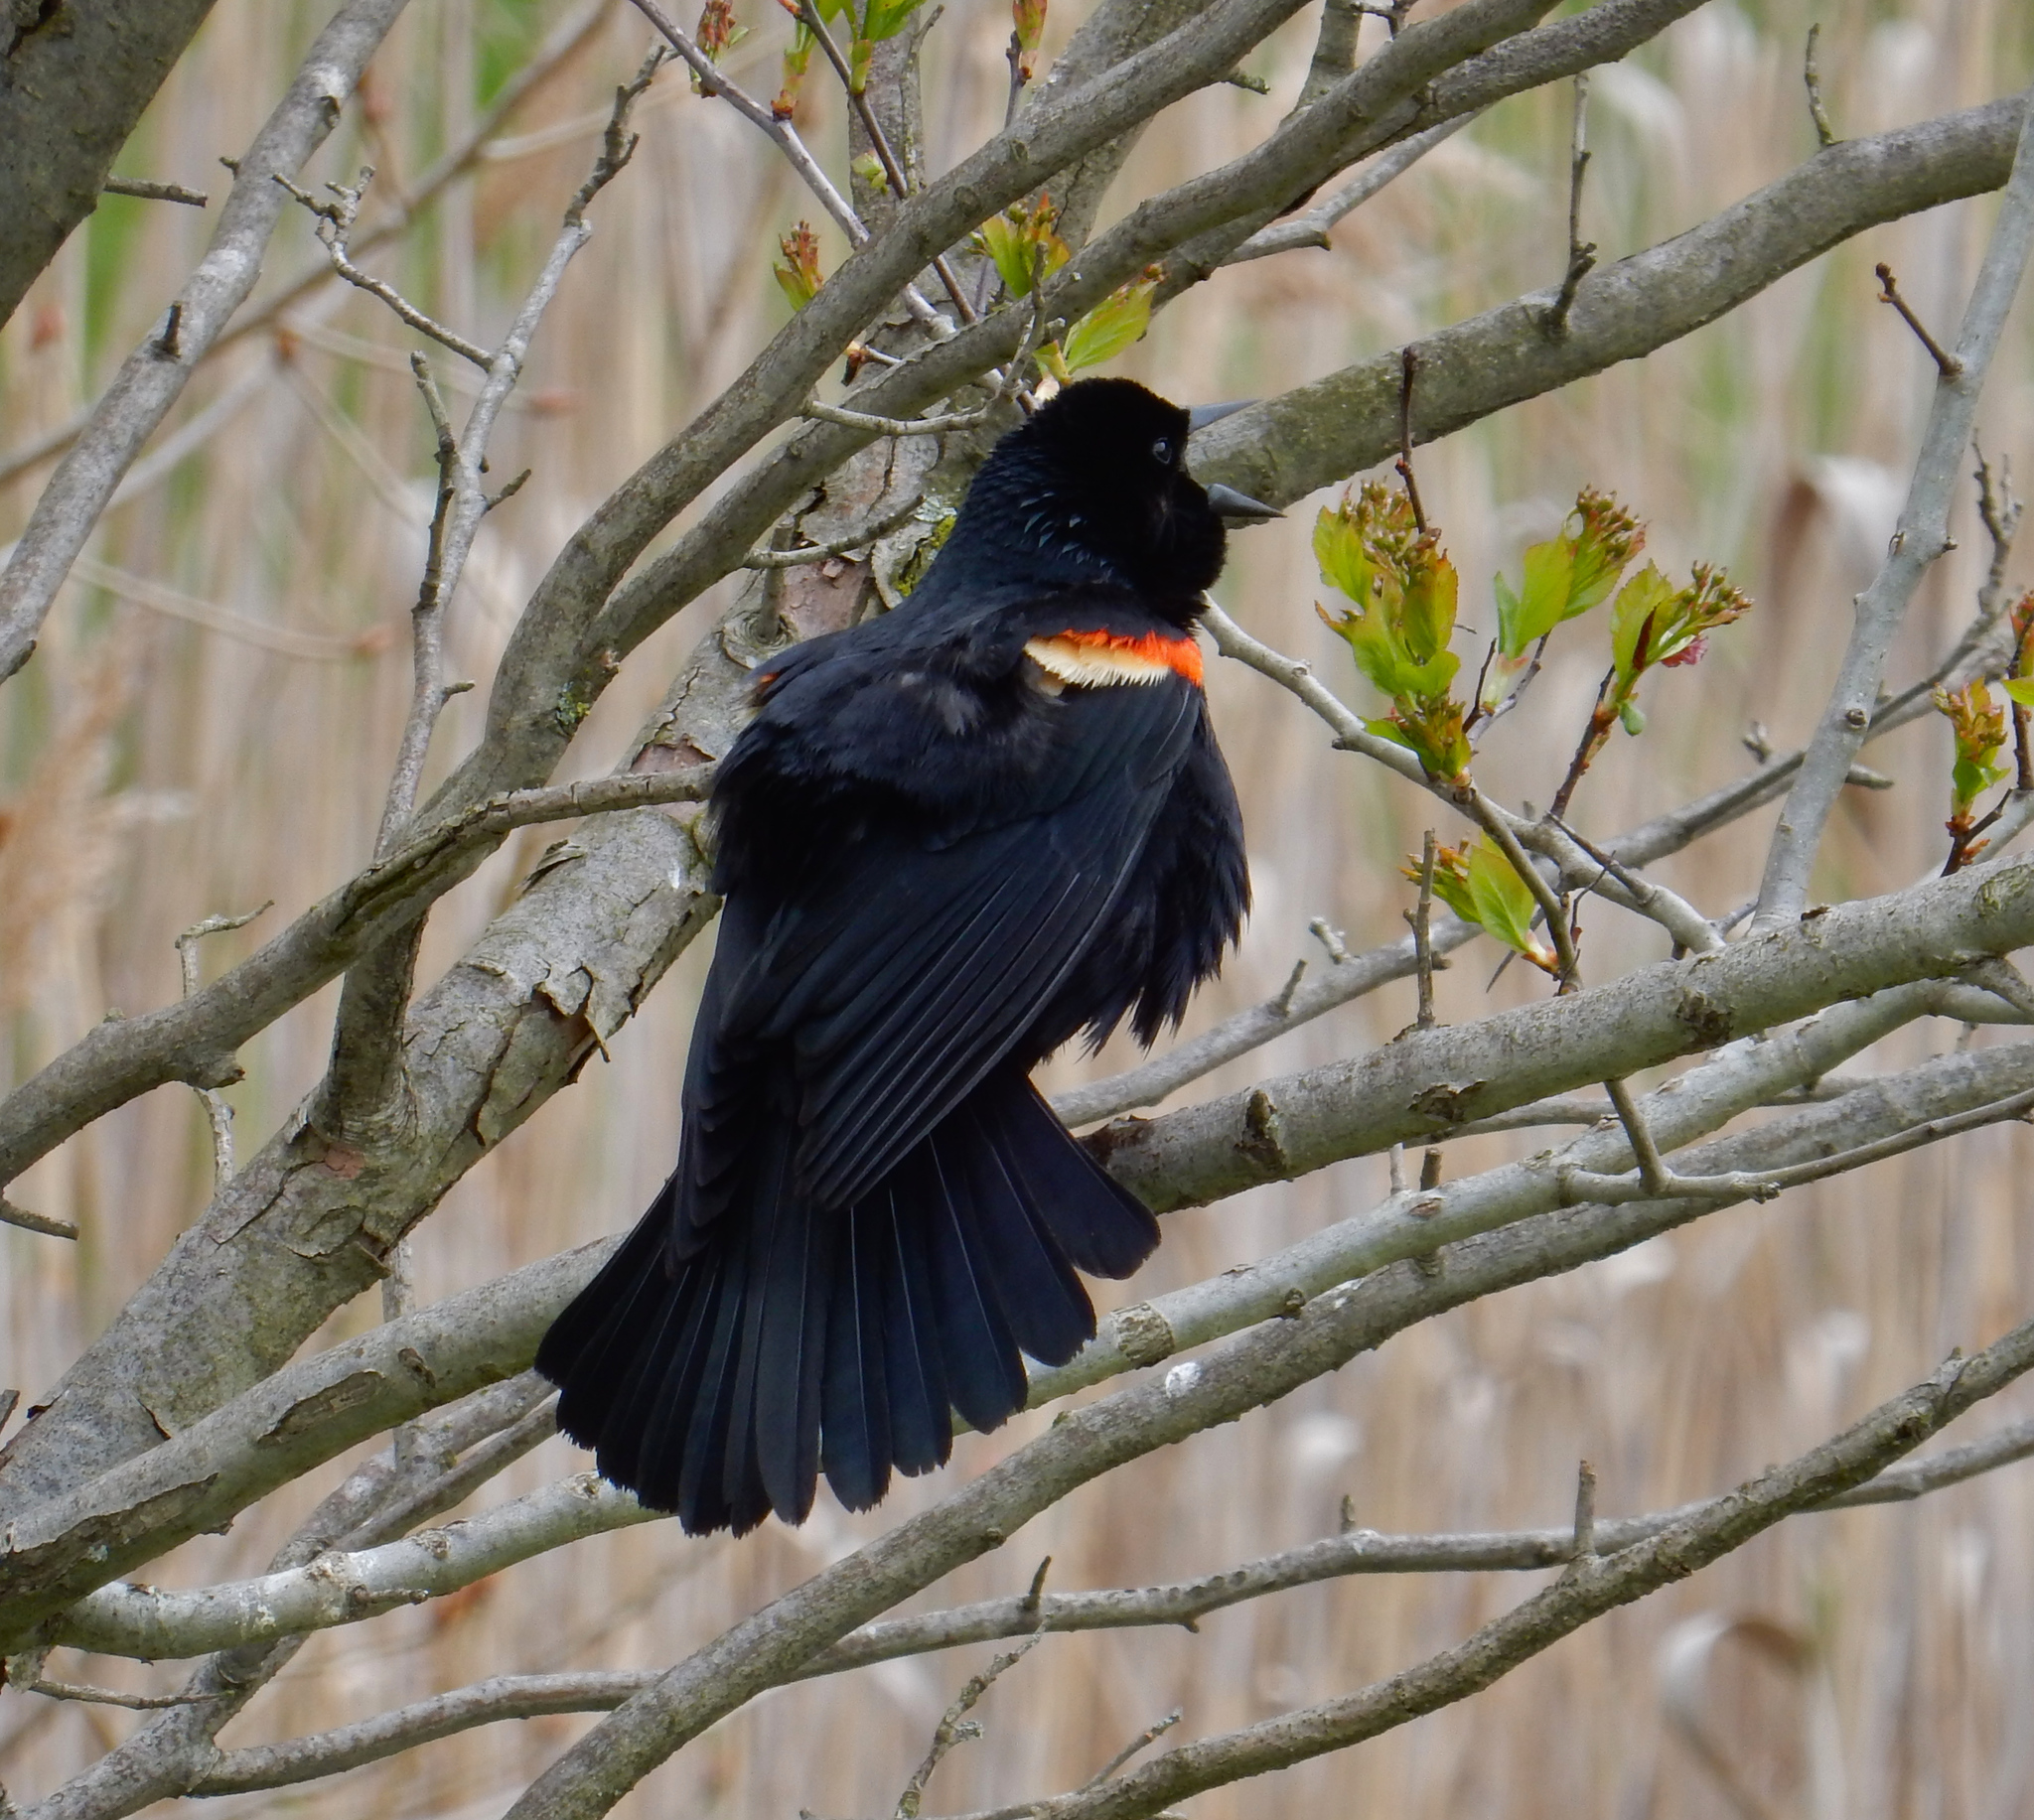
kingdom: Animalia
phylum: Chordata
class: Aves
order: Passeriformes
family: Icteridae
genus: Agelaius
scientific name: Agelaius phoeniceus
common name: Red-winged blackbird
